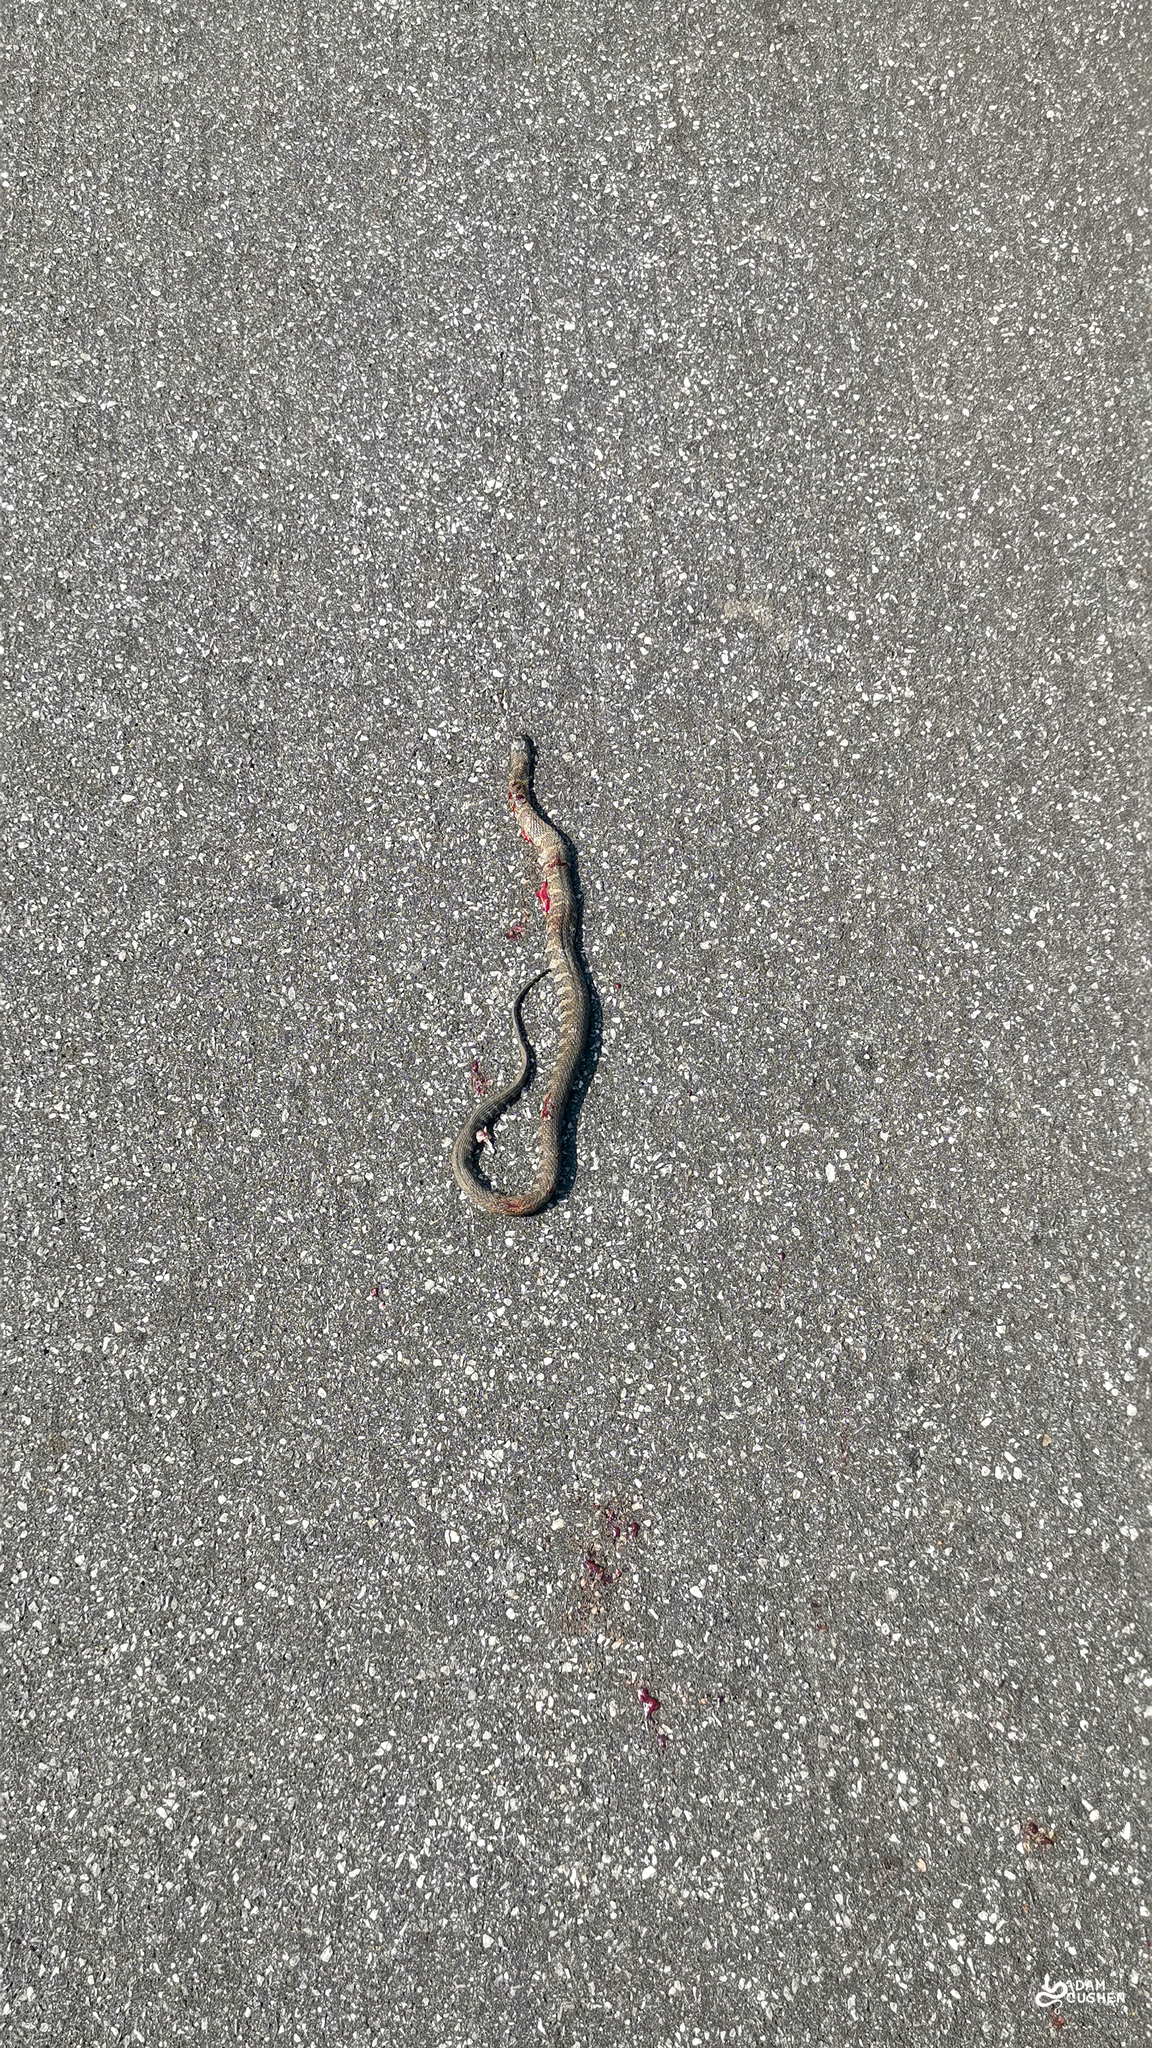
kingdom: Animalia
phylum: Chordata
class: Squamata
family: Colubridae
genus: Nerodia
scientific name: Nerodia sipedon
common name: Northern water snake
